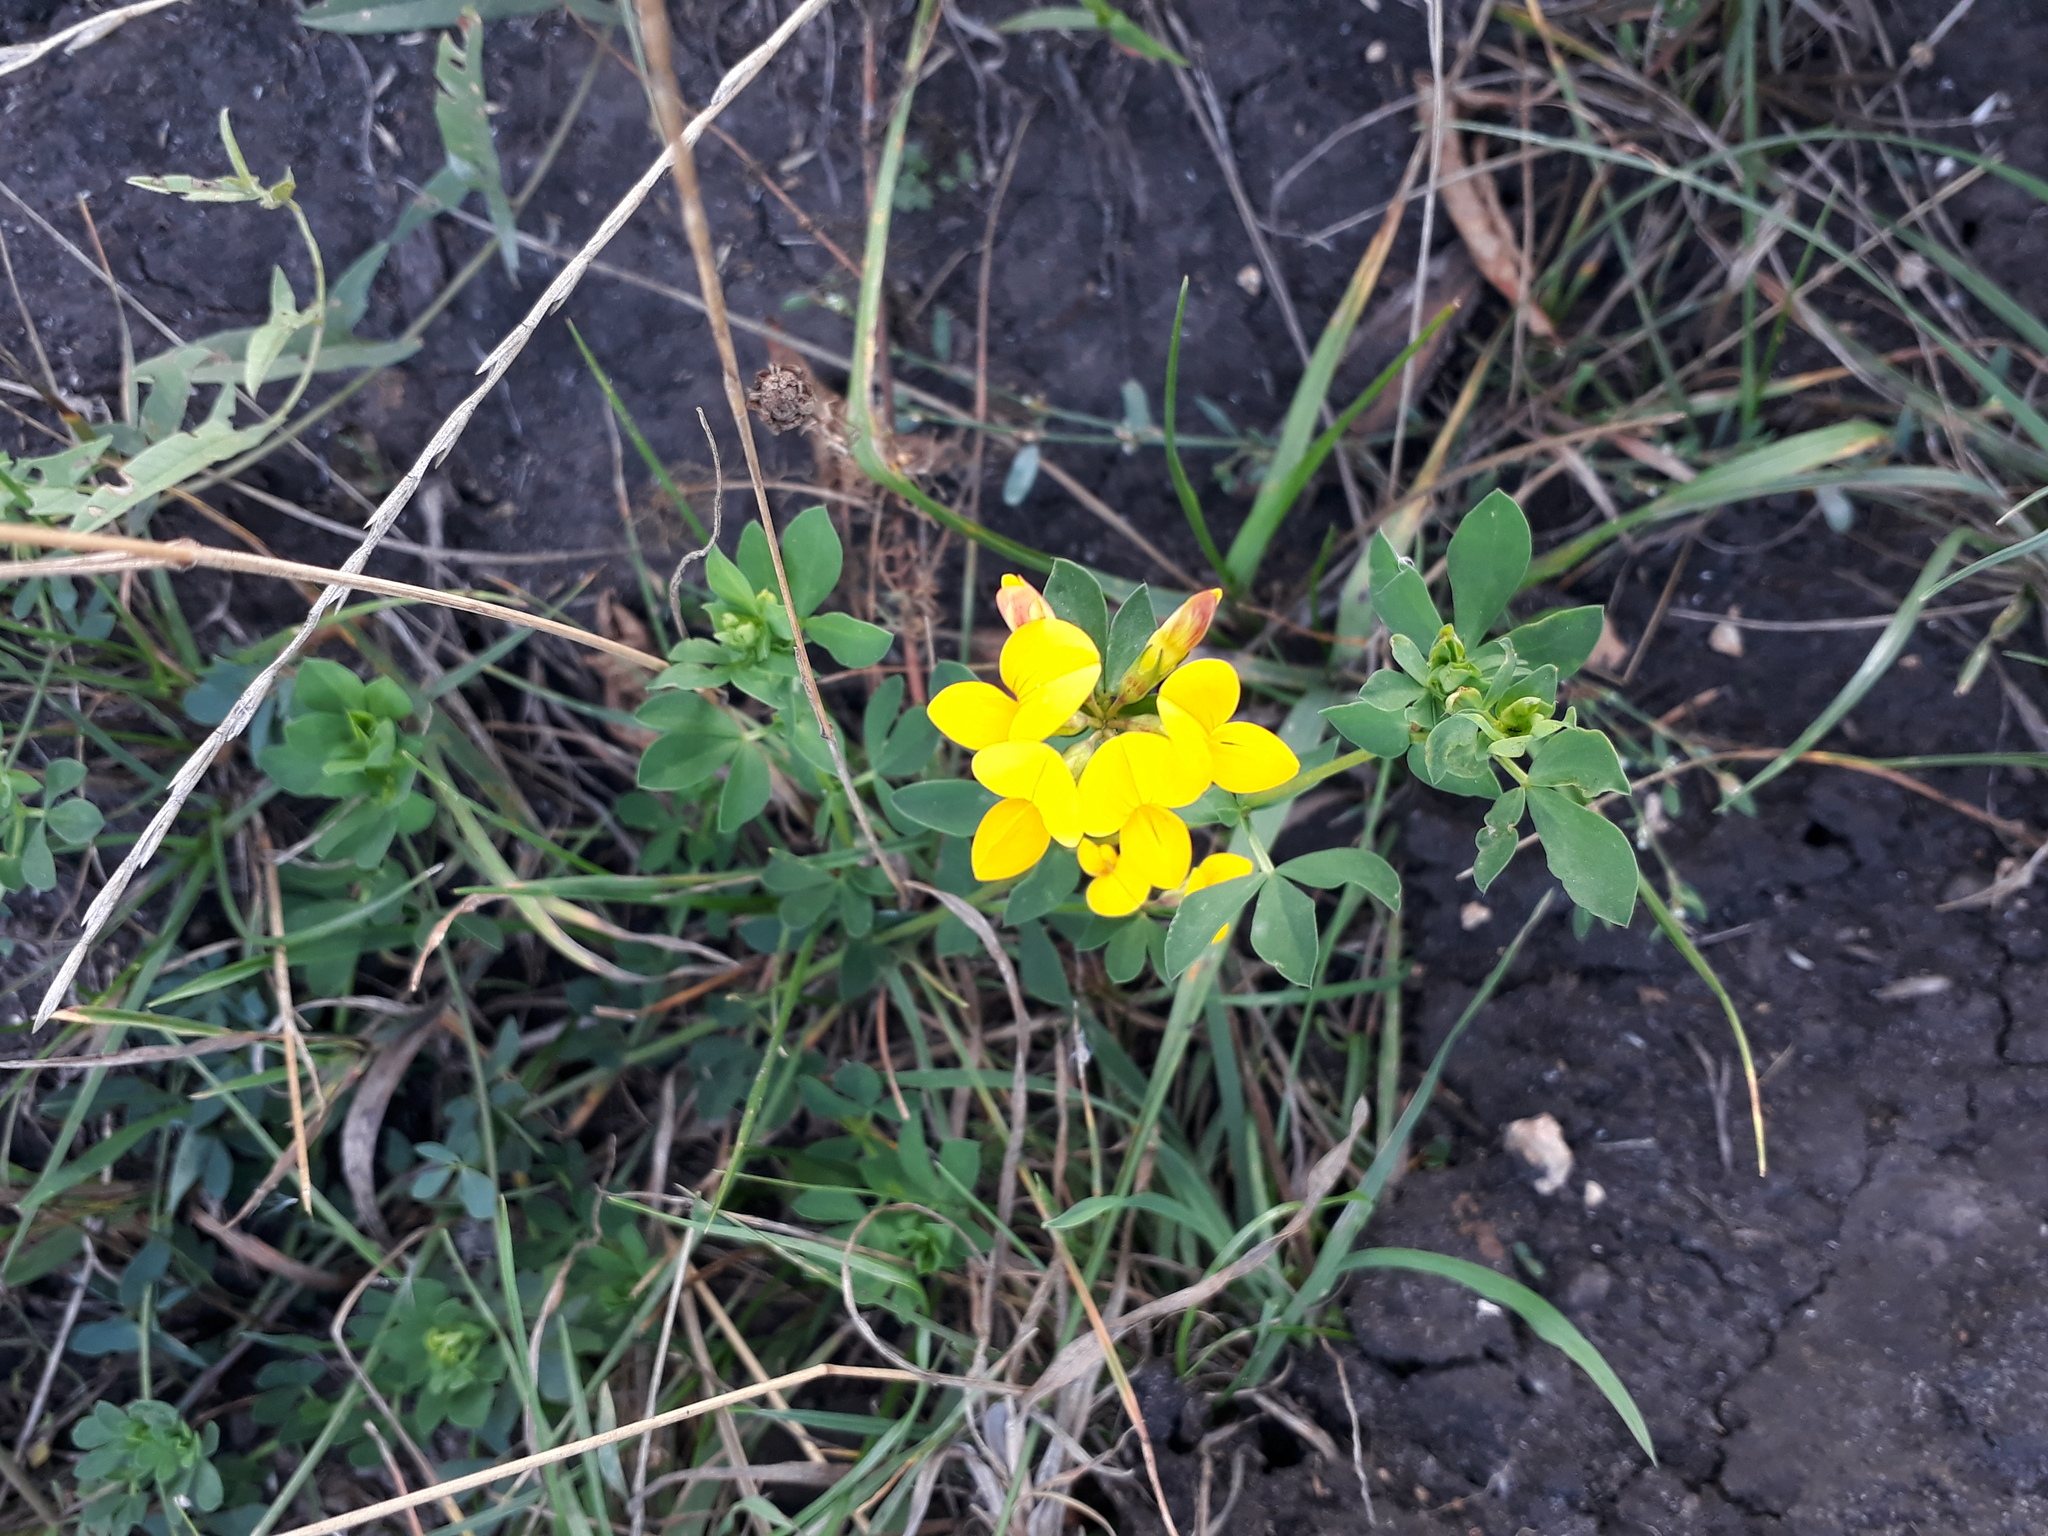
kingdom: Plantae
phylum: Tracheophyta
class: Magnoliopsida
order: Fabales
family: Fabaceae
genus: Lotus
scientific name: Lotus corniculatus
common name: Common bird's-foot-trefoil
